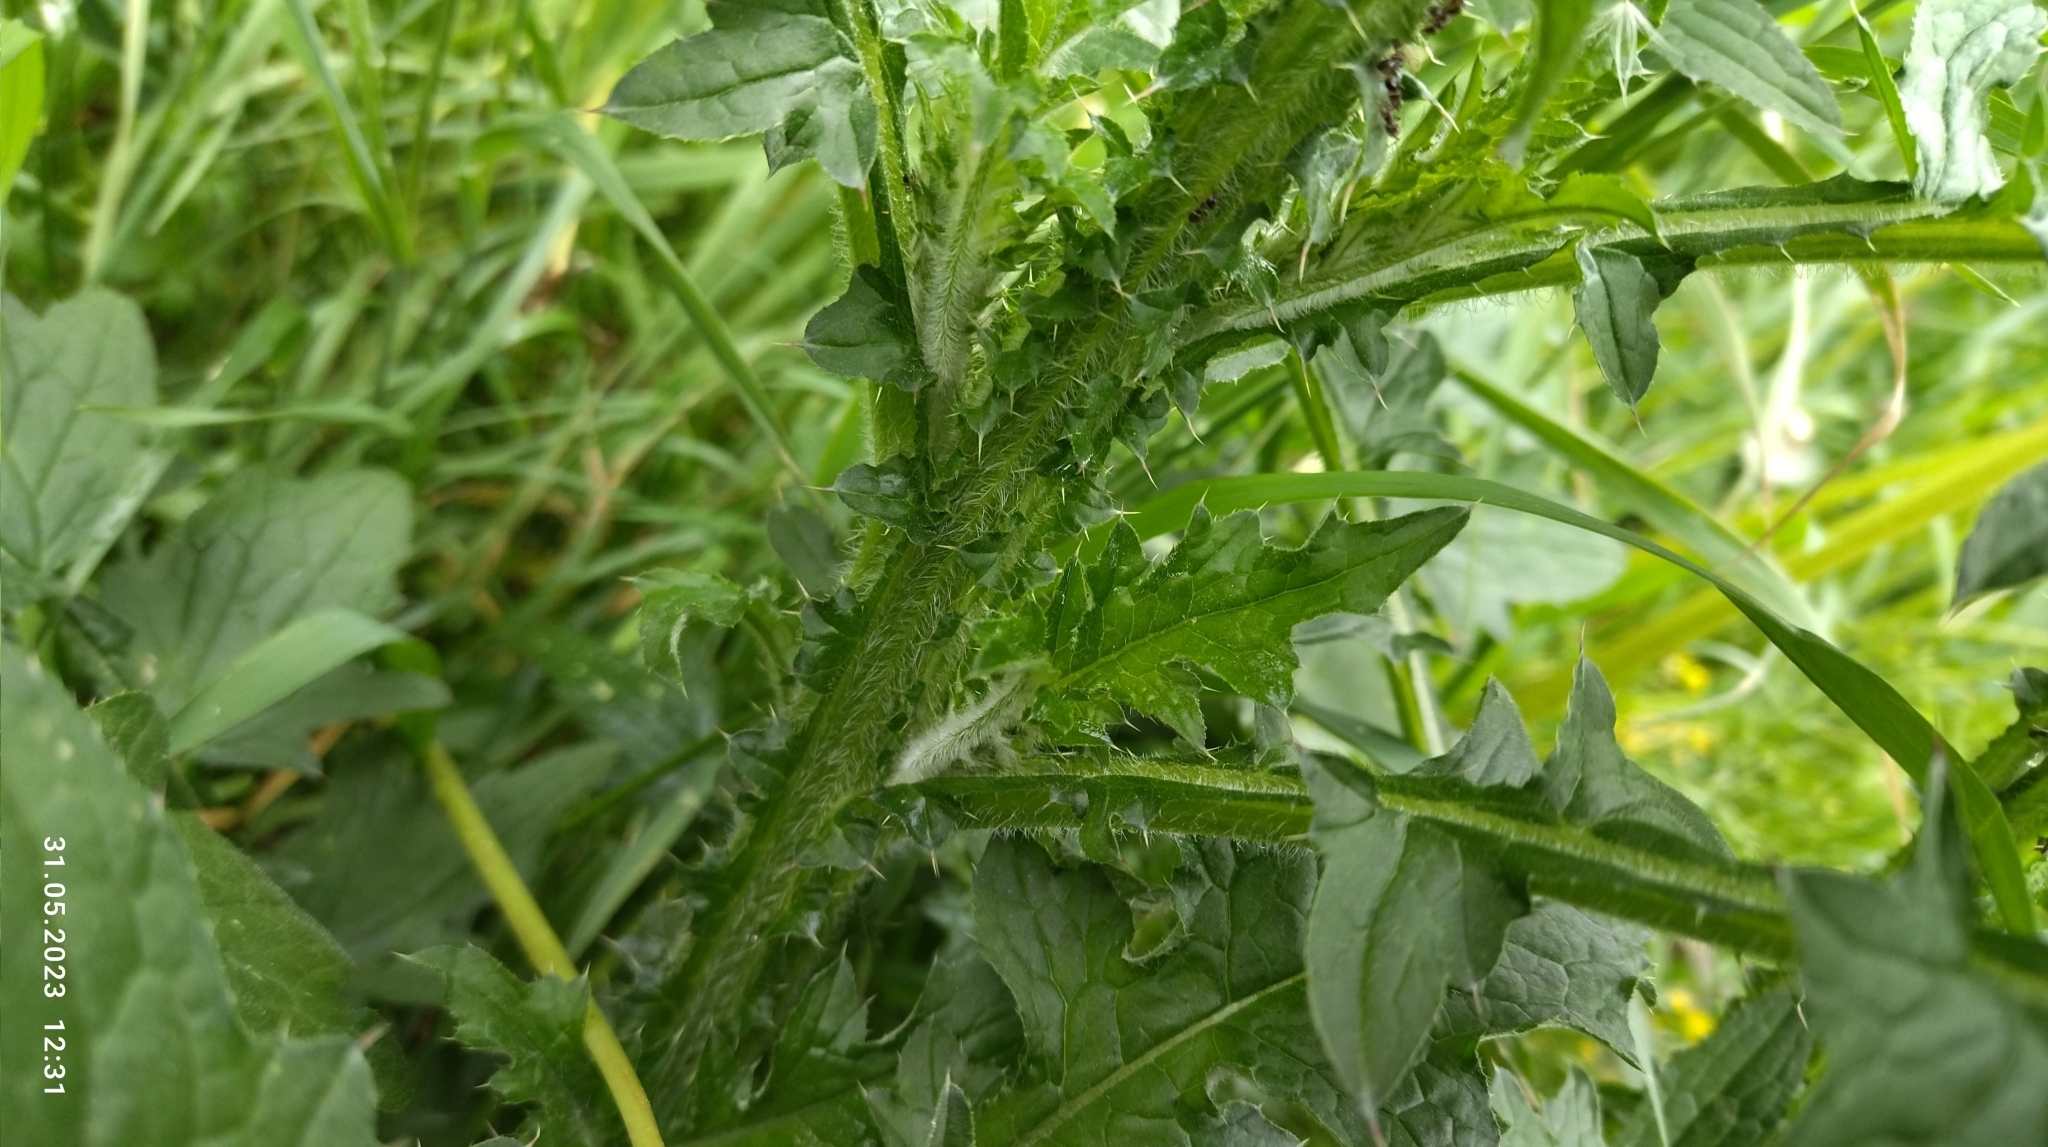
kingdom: Plantae
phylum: Tracheophyta
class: Magnoliopsida
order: Asterales
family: Asteraceae
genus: Carduus
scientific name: Carduus crispus
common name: Welted thistle
